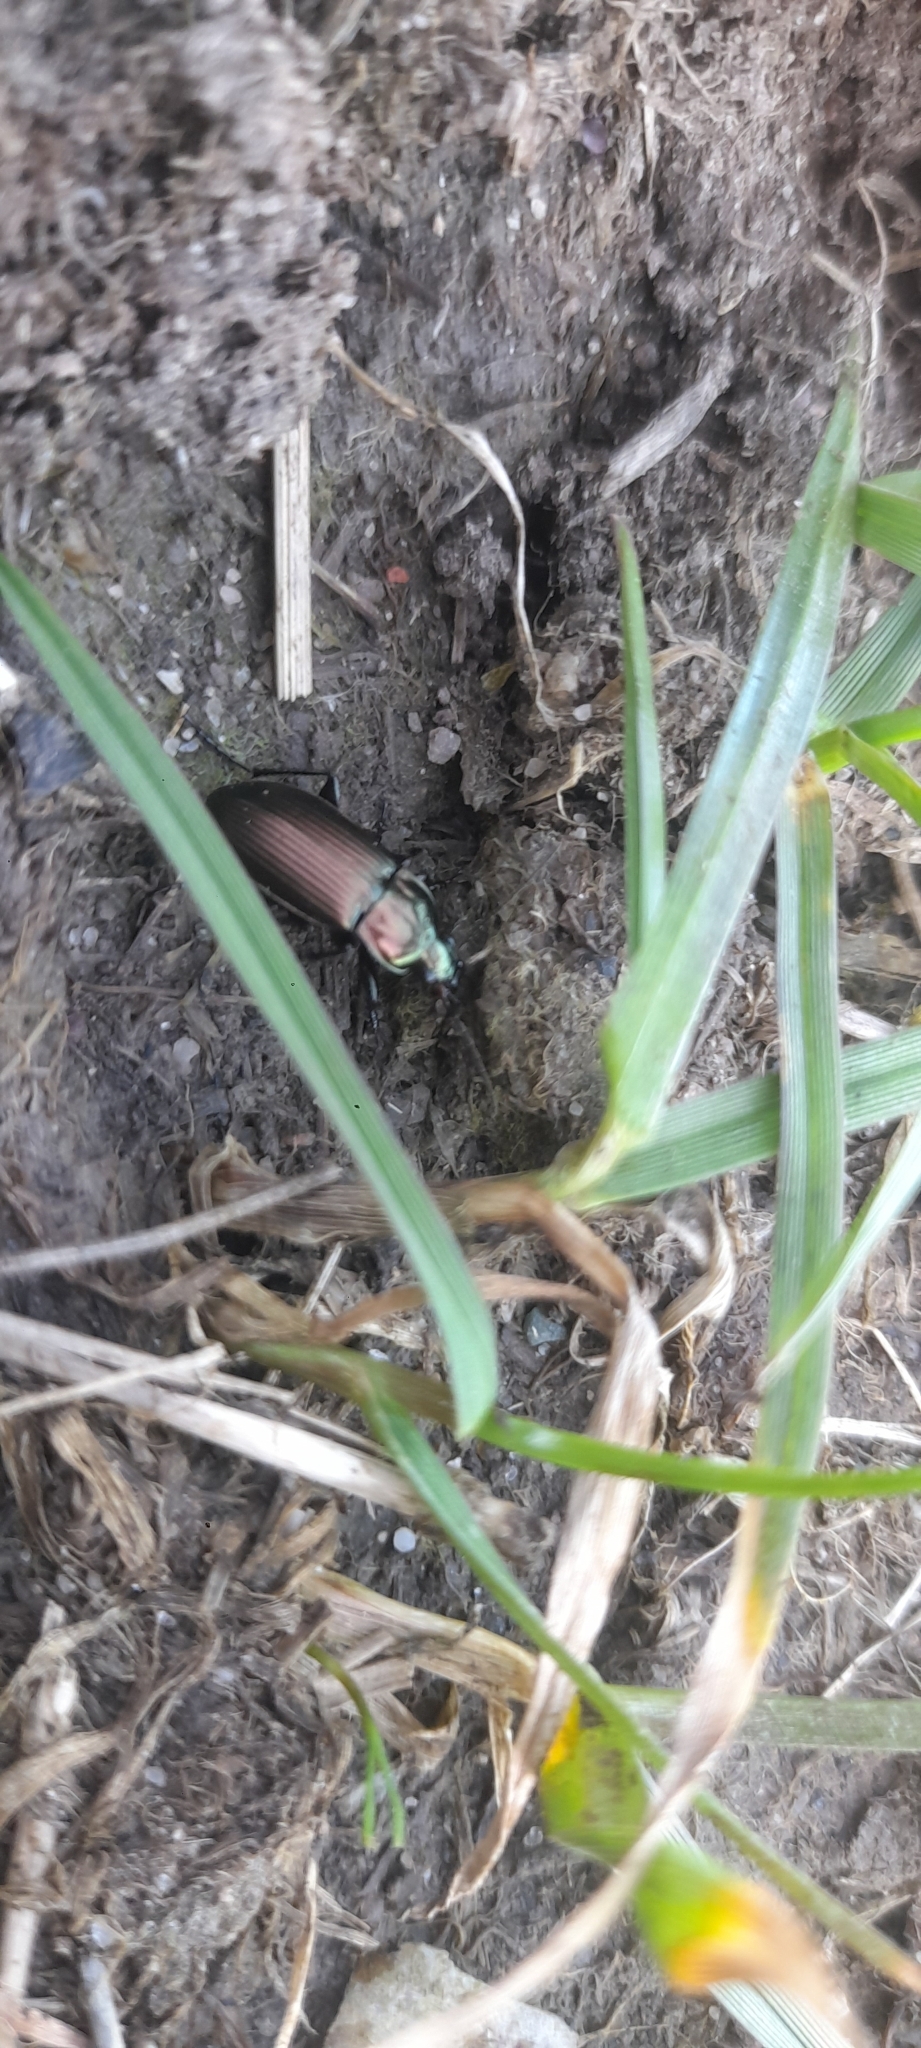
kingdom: Animalia
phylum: Arthropoda
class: Insecta
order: Coleoptera
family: Carabidae
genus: Poecilus
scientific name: Poecilus
